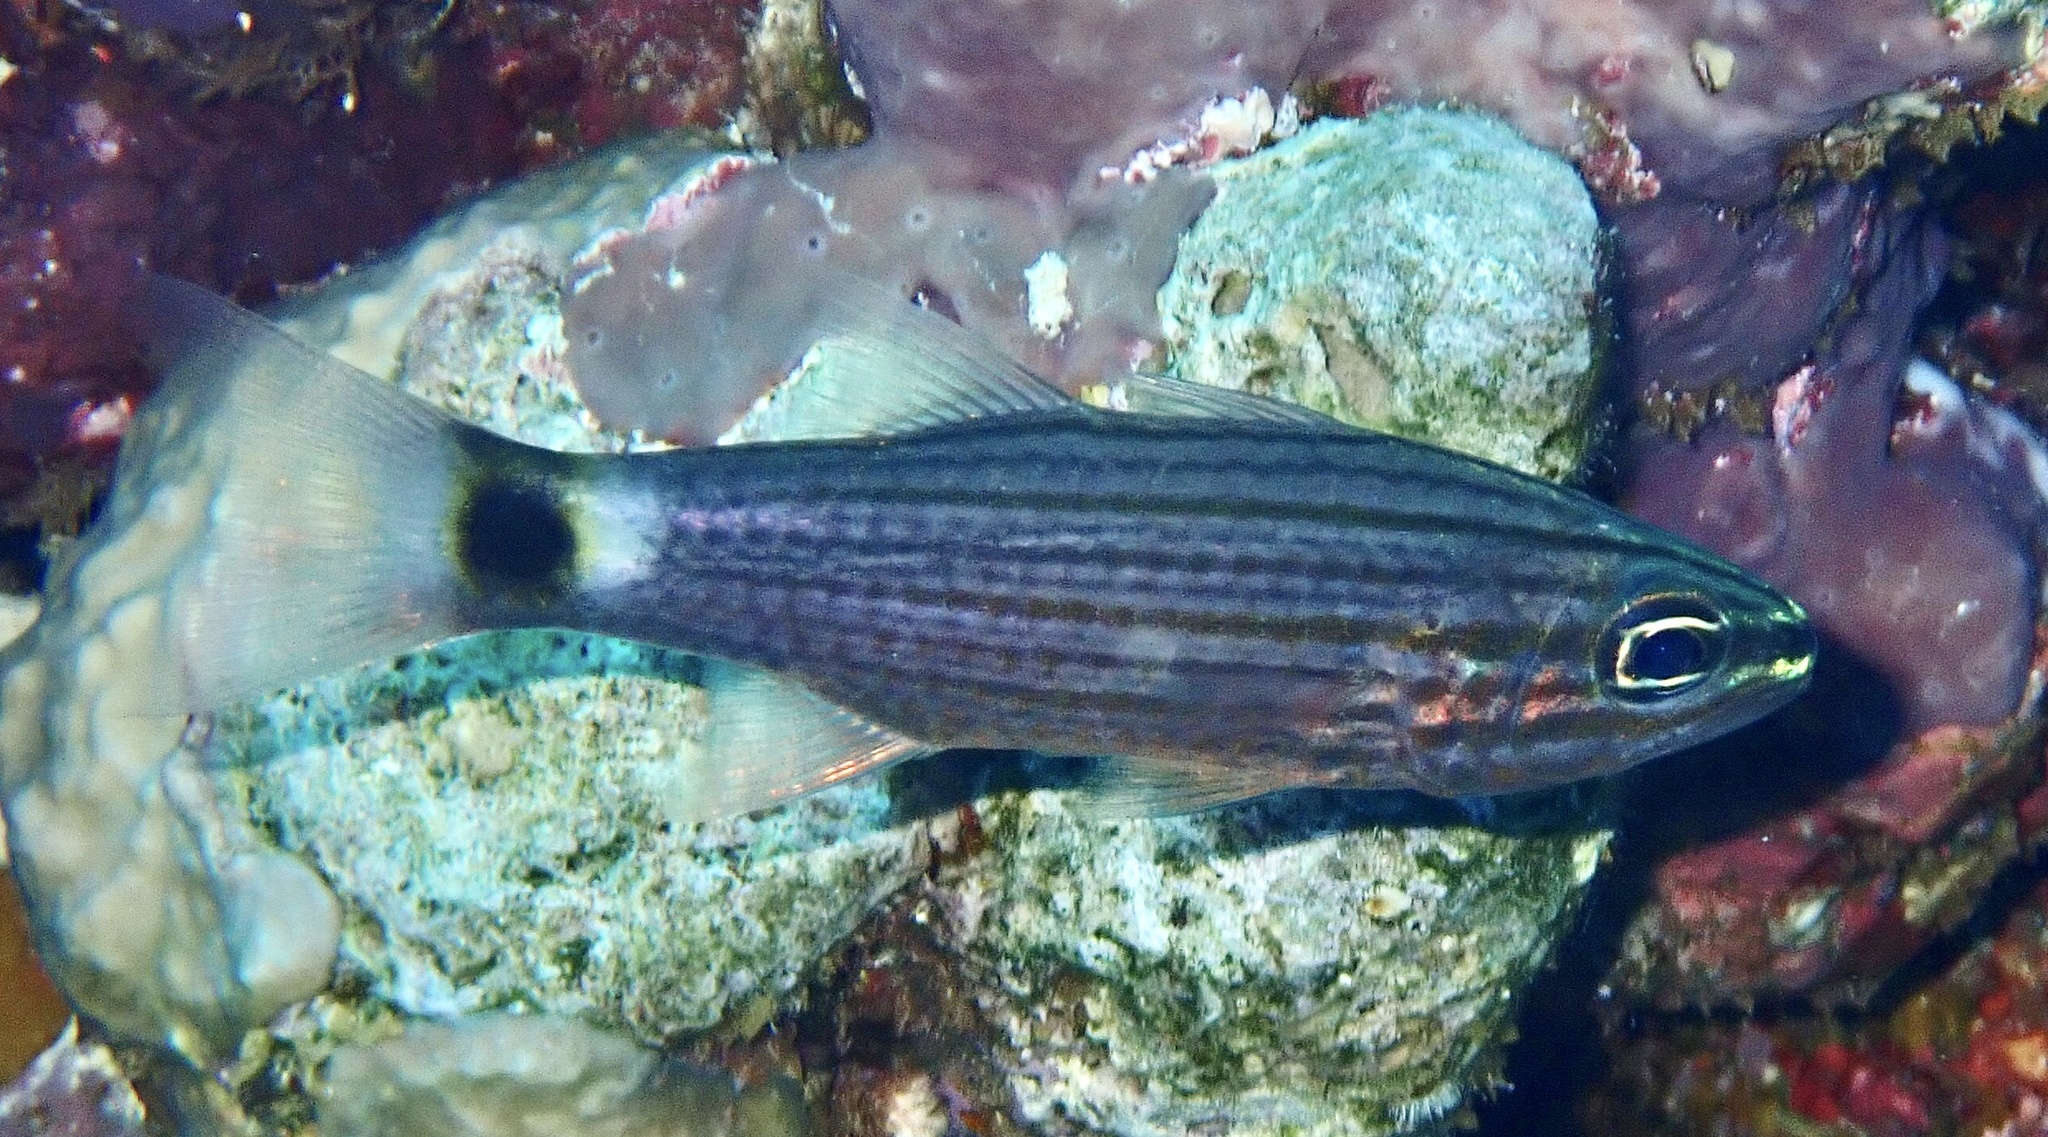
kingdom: Animalia
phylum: Chordata
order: Perciformes
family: Apogonidae
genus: Cheilodipterus
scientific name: Cheilodipterus lachneri
